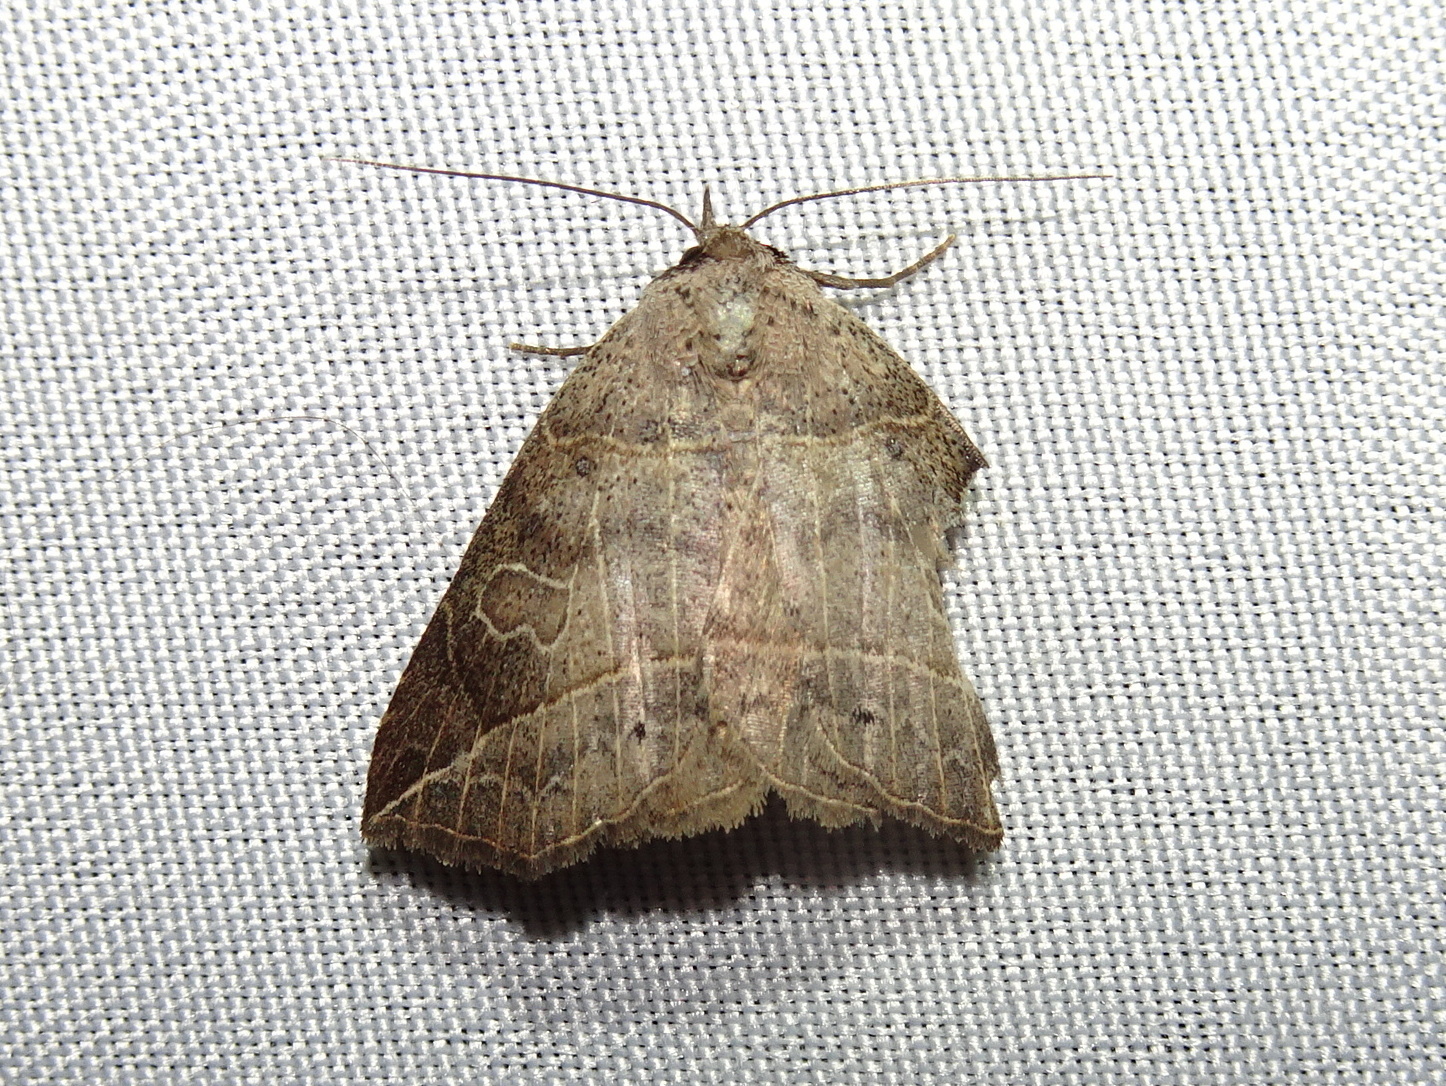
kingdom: Animalia
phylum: Arthropoda
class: Insecta
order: Lepidoptera
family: Erebidae
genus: Isogona
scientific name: Isogona tenuis
